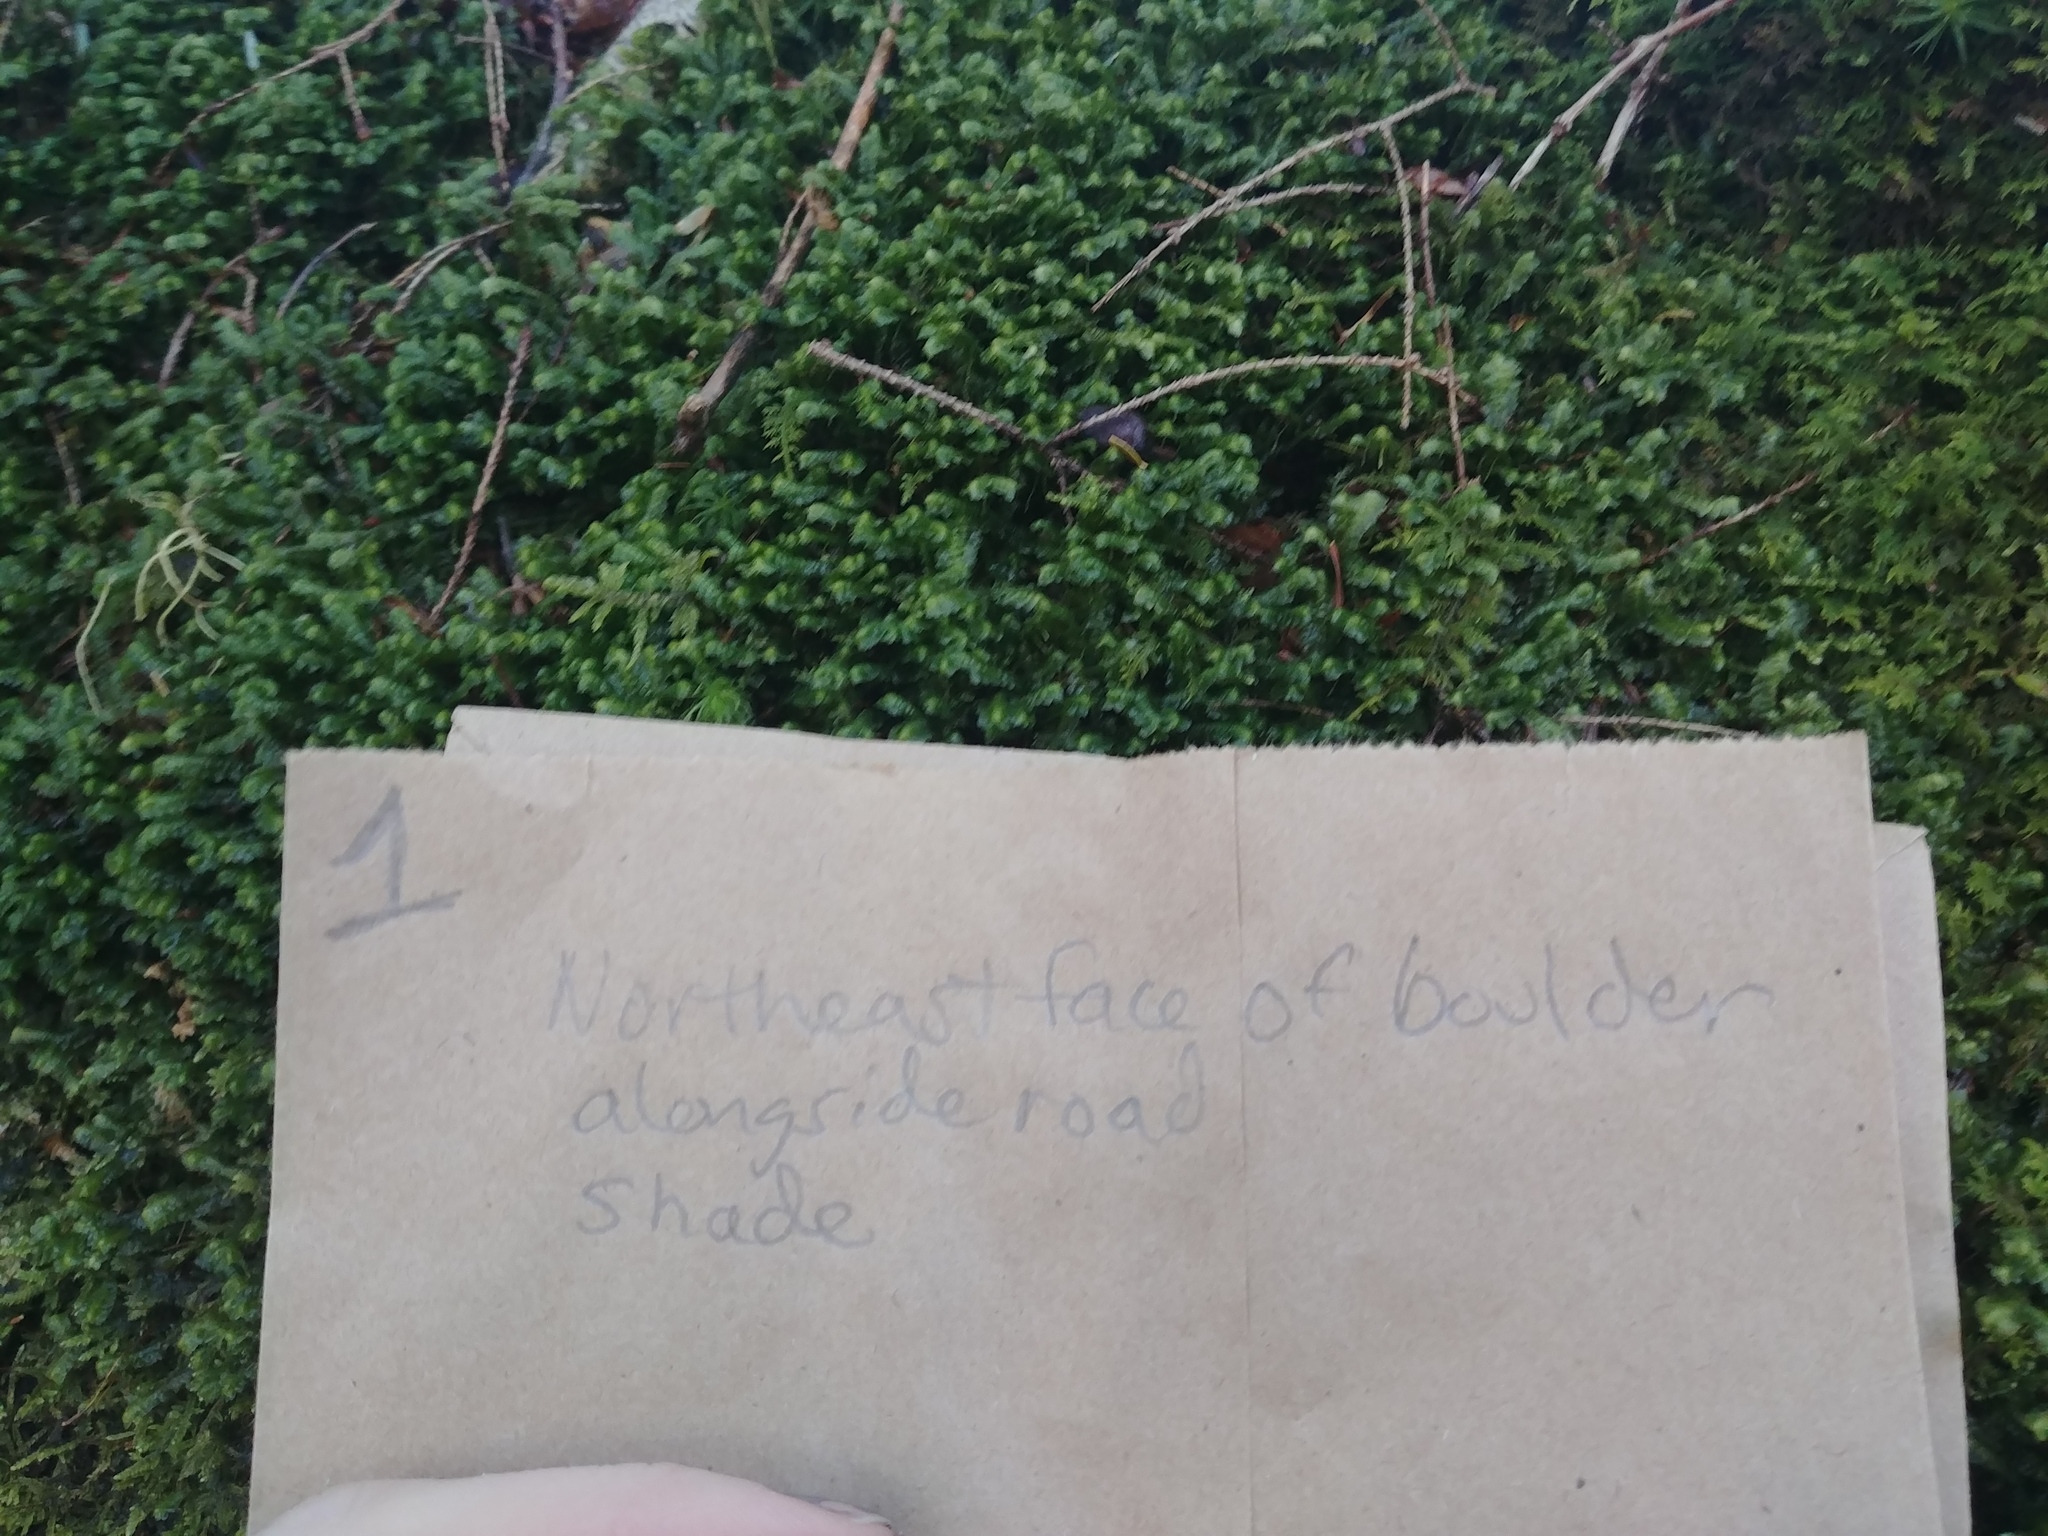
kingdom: Plantae
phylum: Marchantiophyta
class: Jungermanniopsida
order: Jungermanniales
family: Lepidoziaceae
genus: Bazzania
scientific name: Bazzania trilobata
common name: Three-lobed whipwort
